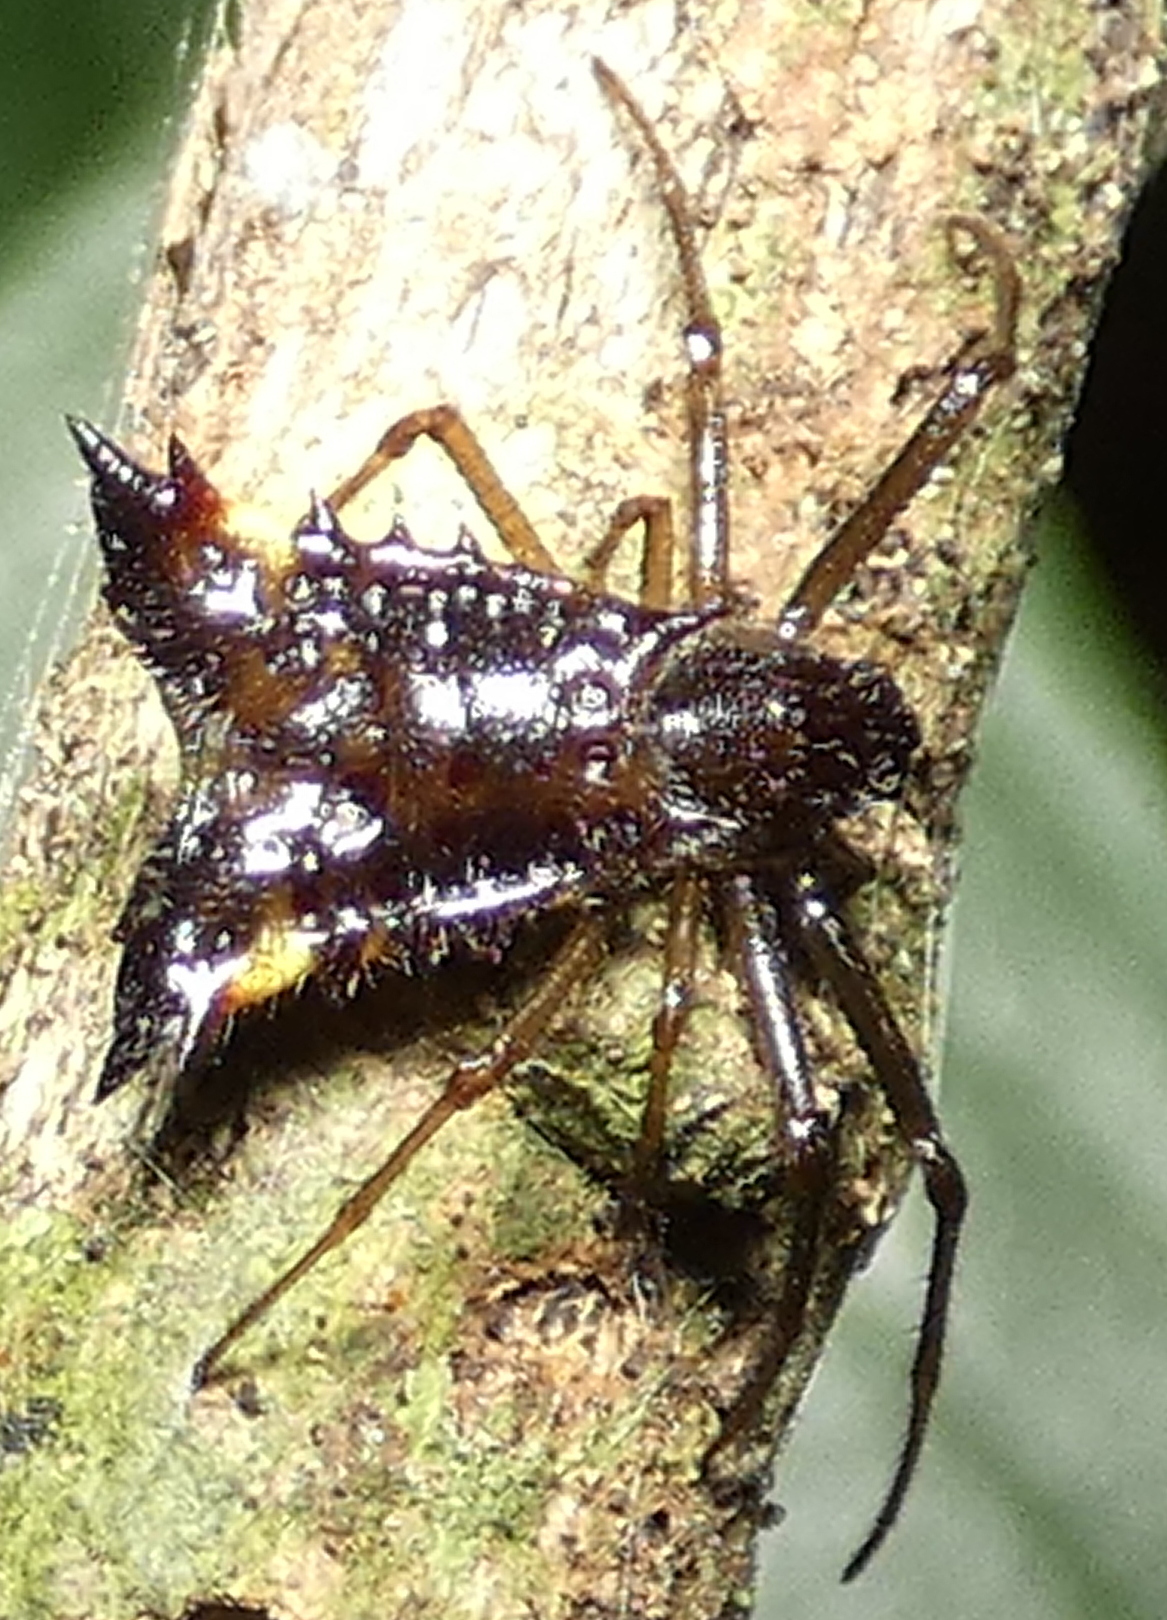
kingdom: Animalia
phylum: Arthropoda
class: Arachnida
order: Araneae
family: Araneidae
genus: Micrathena
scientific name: Micrathena triangularis
